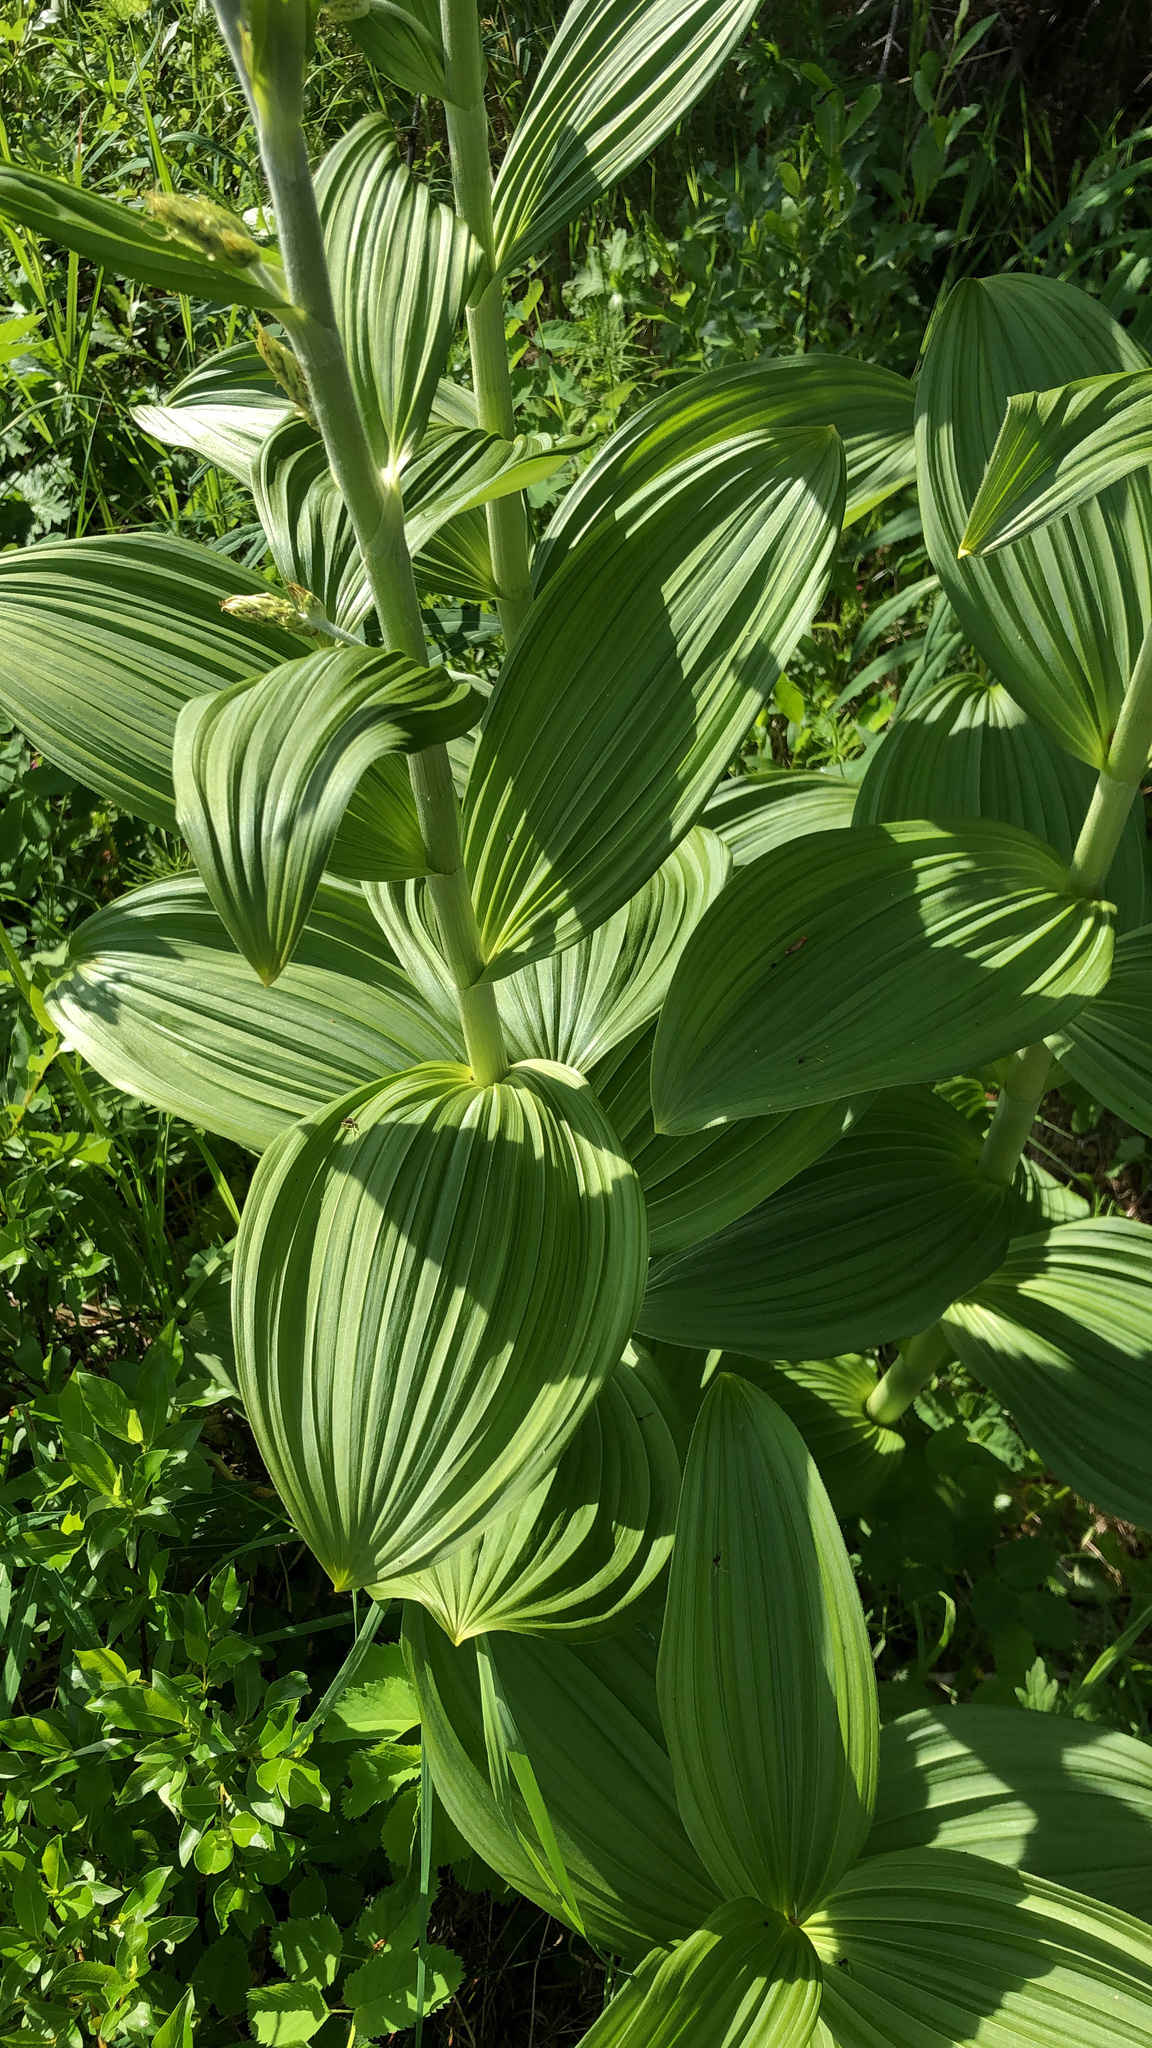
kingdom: Plantae
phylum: Tracheophyta
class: Liliopsida
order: Liliales
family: Melanthiaceae
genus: Veratrum
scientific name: Veratrum viride
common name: American false hellebore
